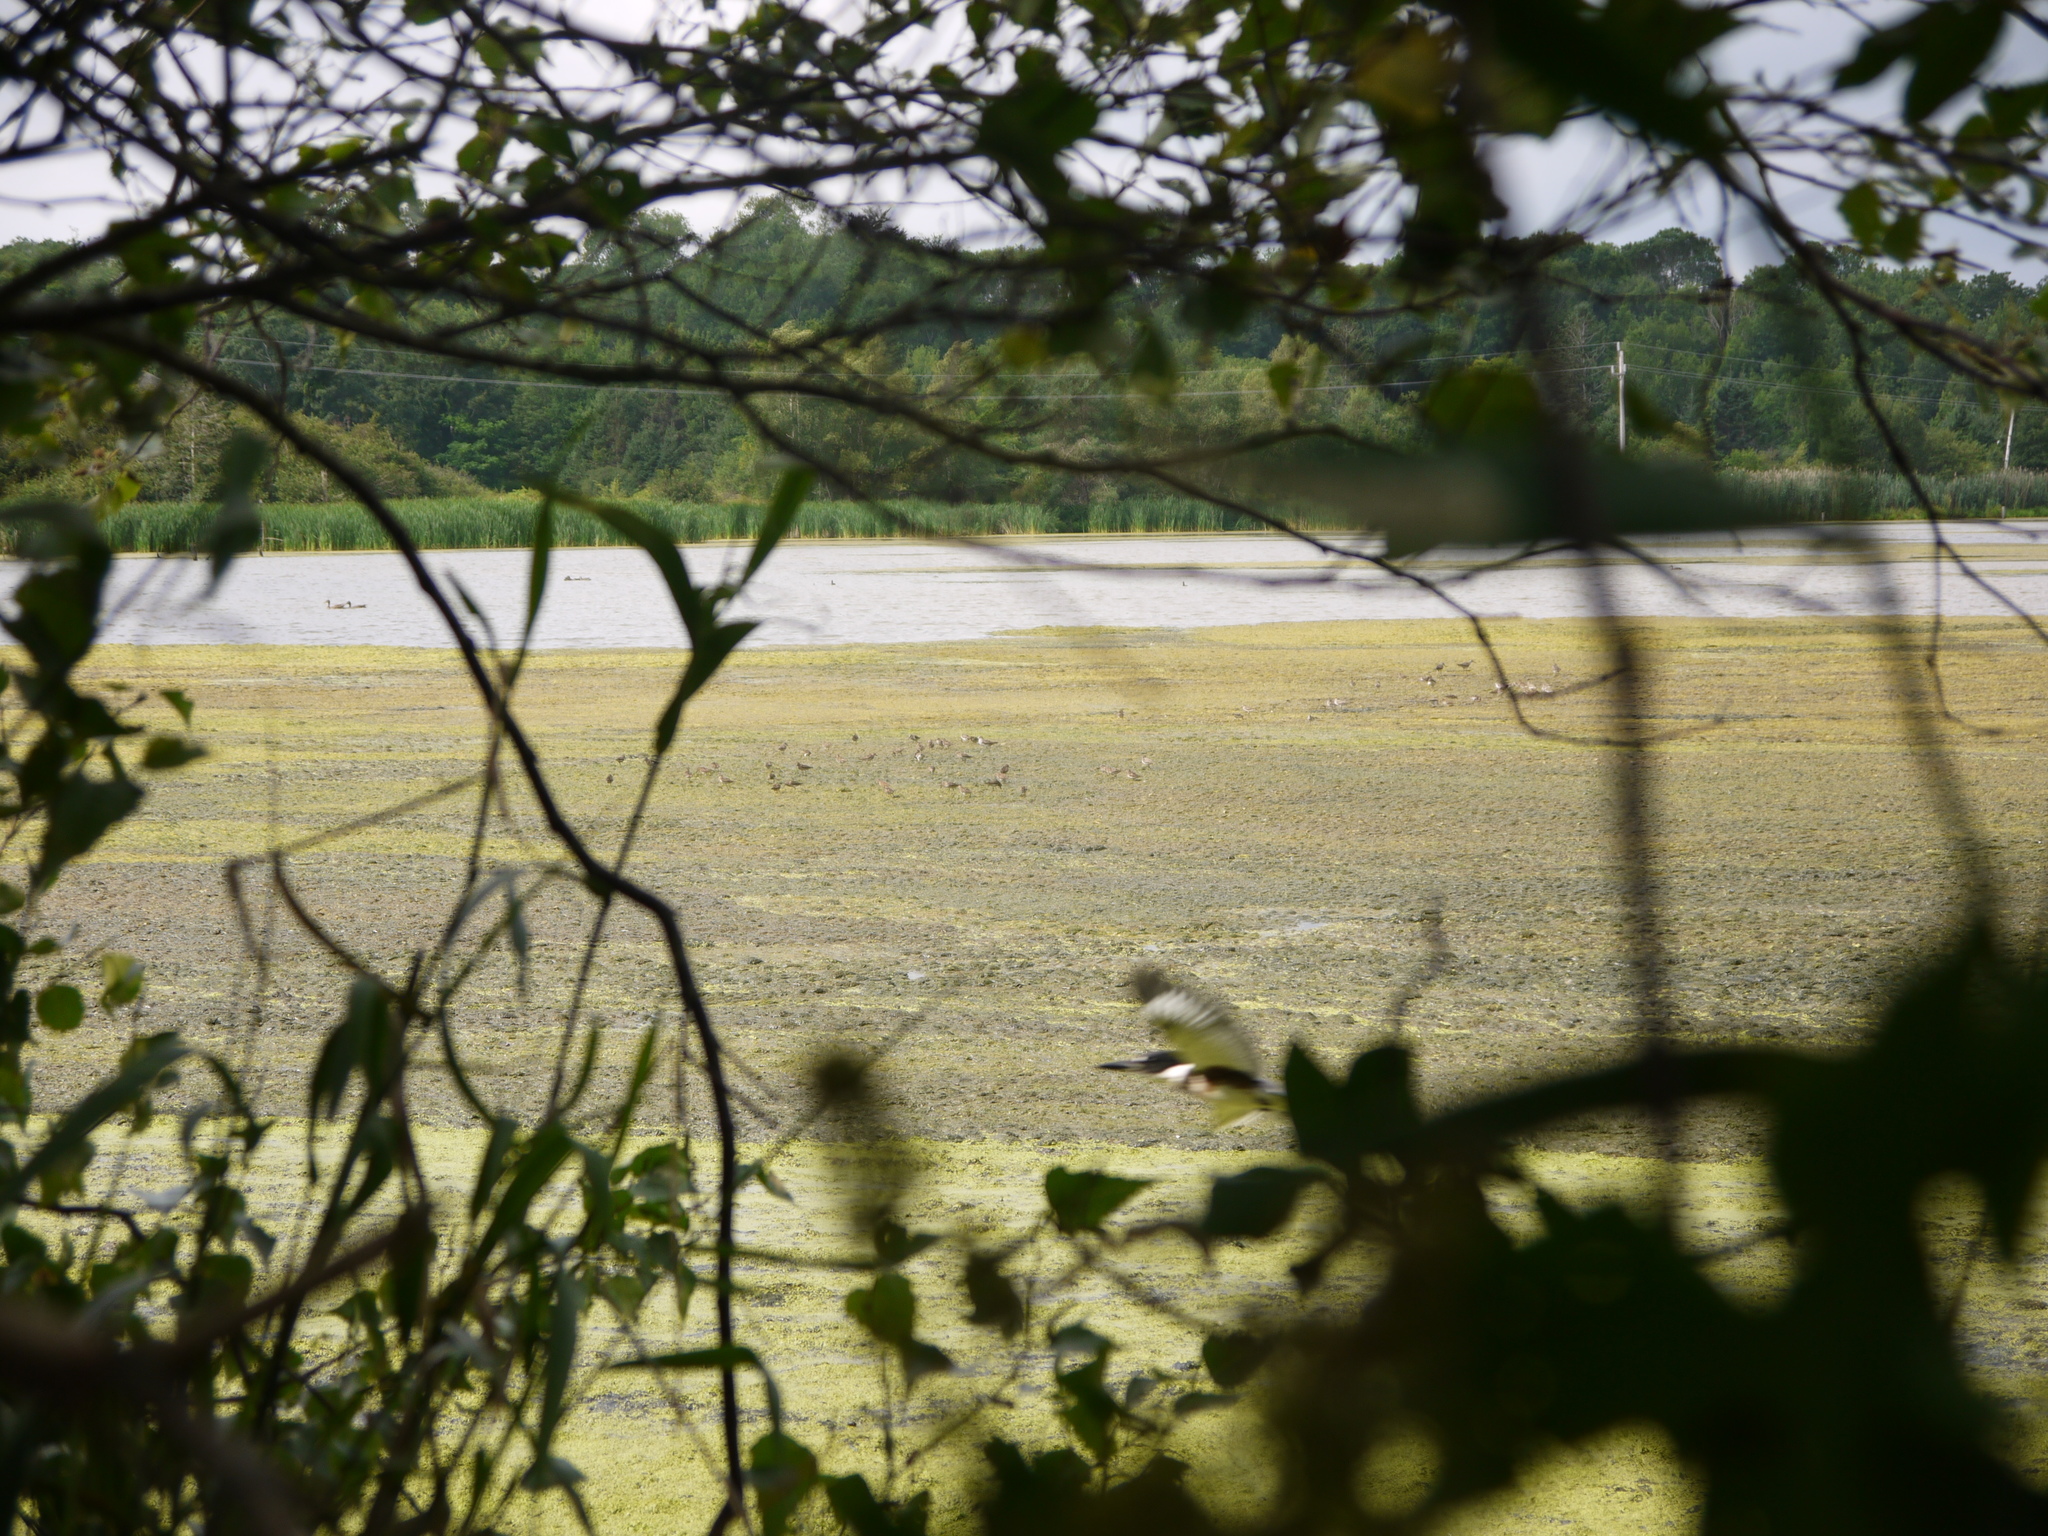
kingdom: Animalia
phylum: Chordata
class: Aves
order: Coraciiformes
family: Alcedinidae
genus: Megaceryle
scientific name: Megaceryle alcyon
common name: Belted kingfisher
